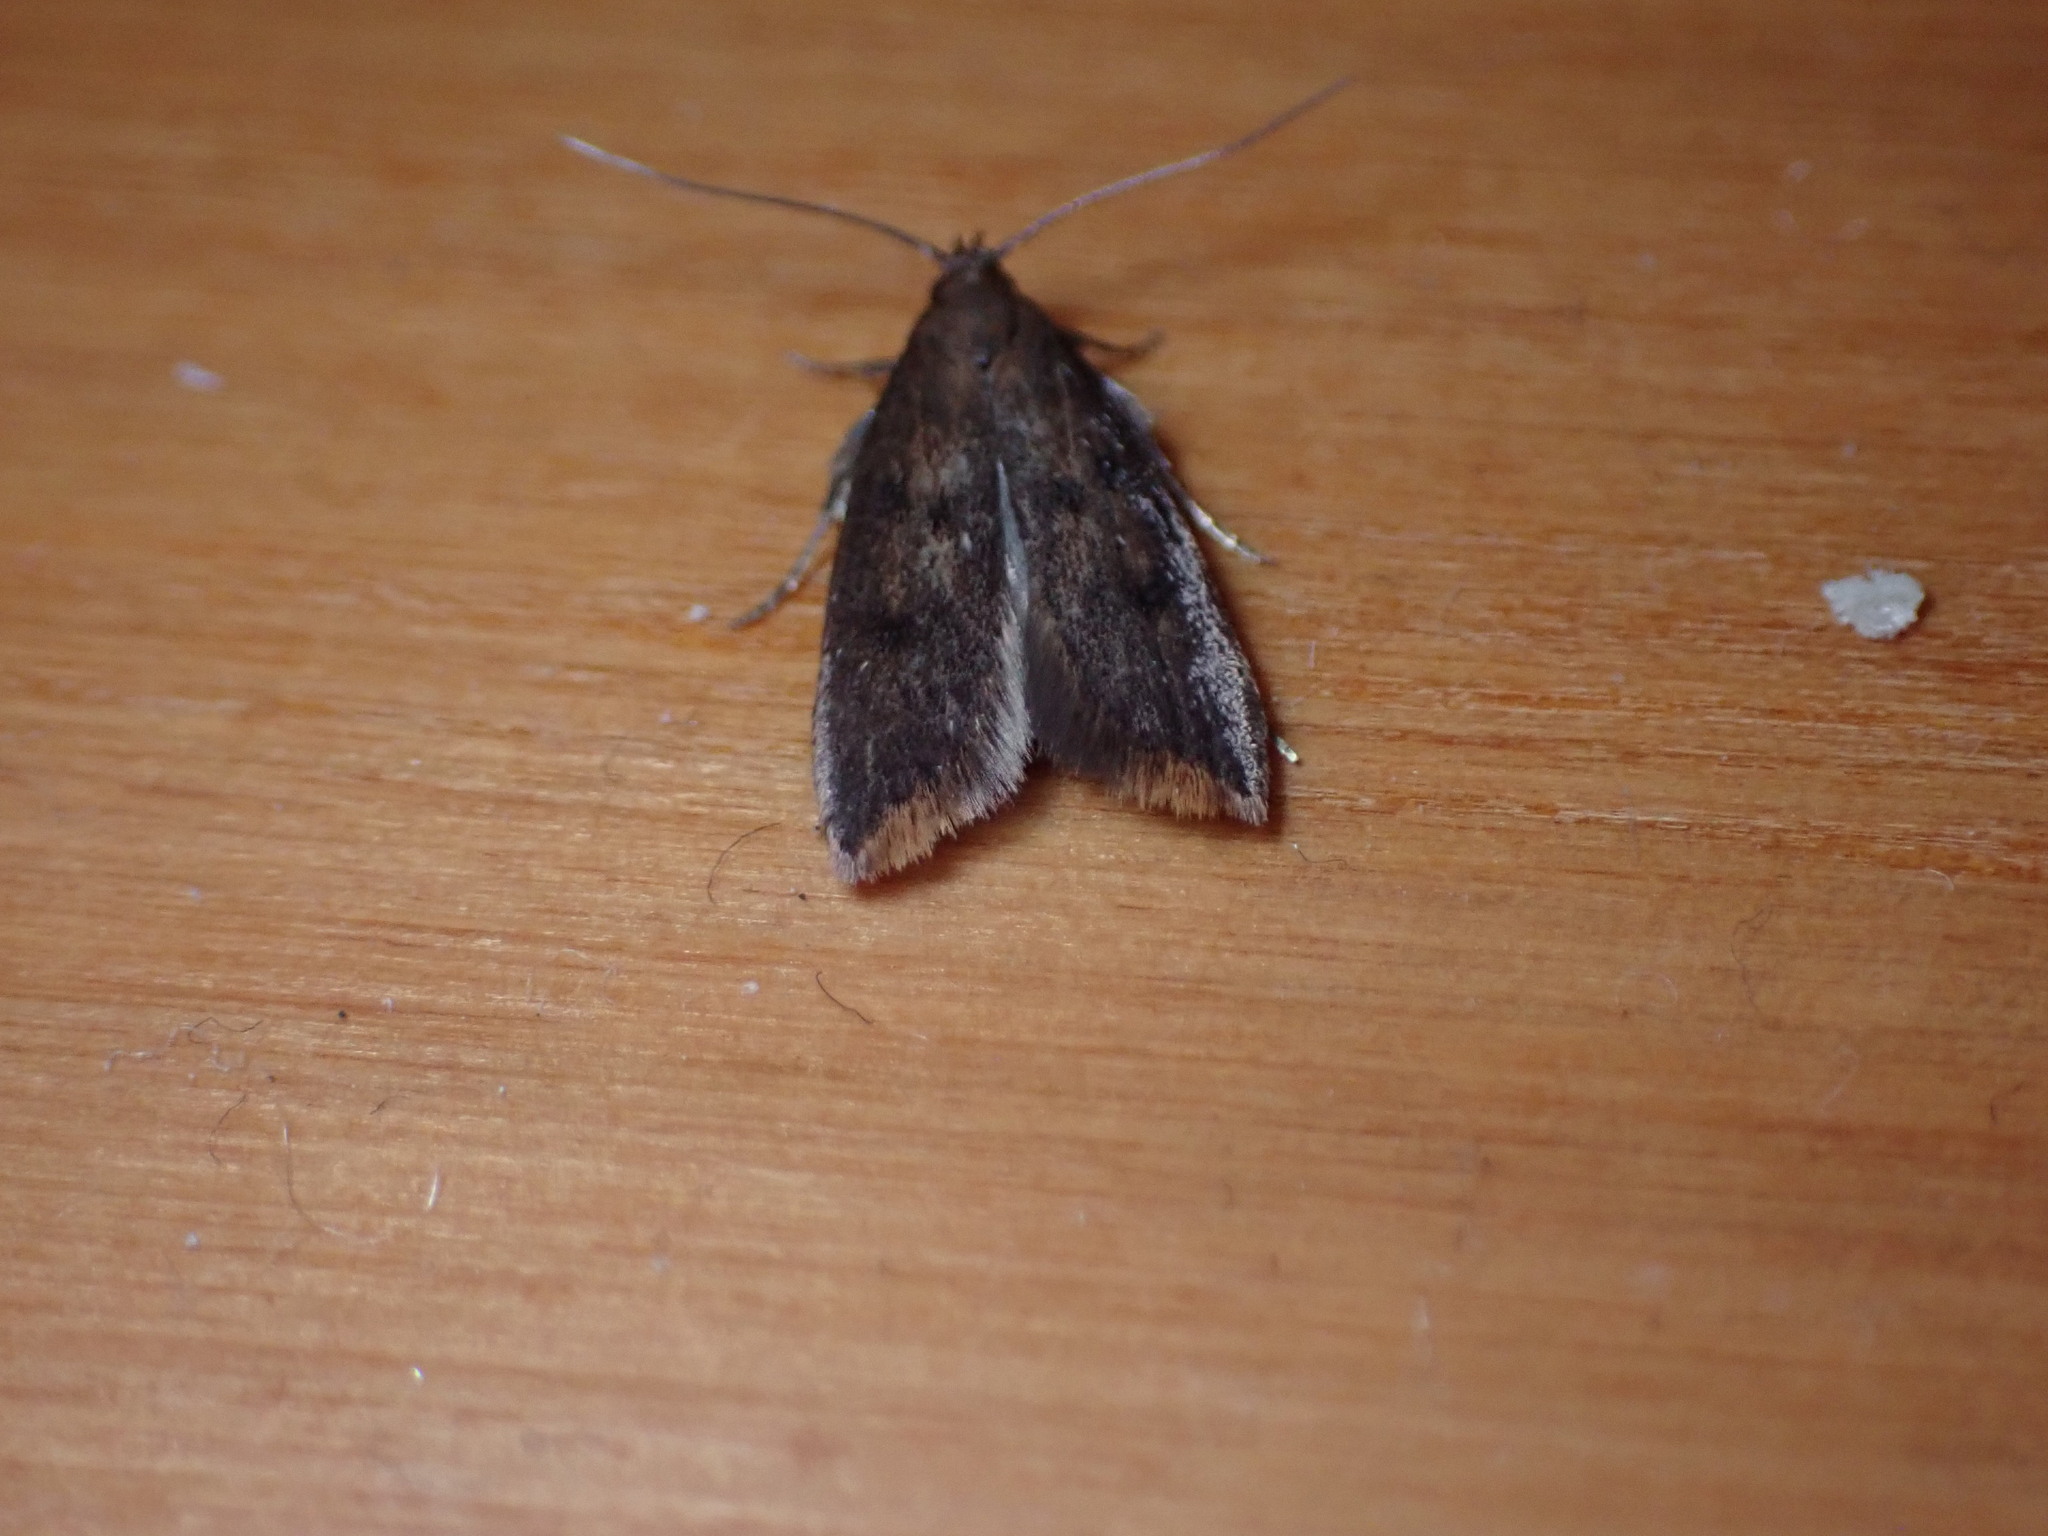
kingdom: Animalia
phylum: Arthropoda
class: Insecta
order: Lepidoptera
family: Oecophoridae
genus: Tachystola
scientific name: Tachystola acroxantha
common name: Ruddy streak
